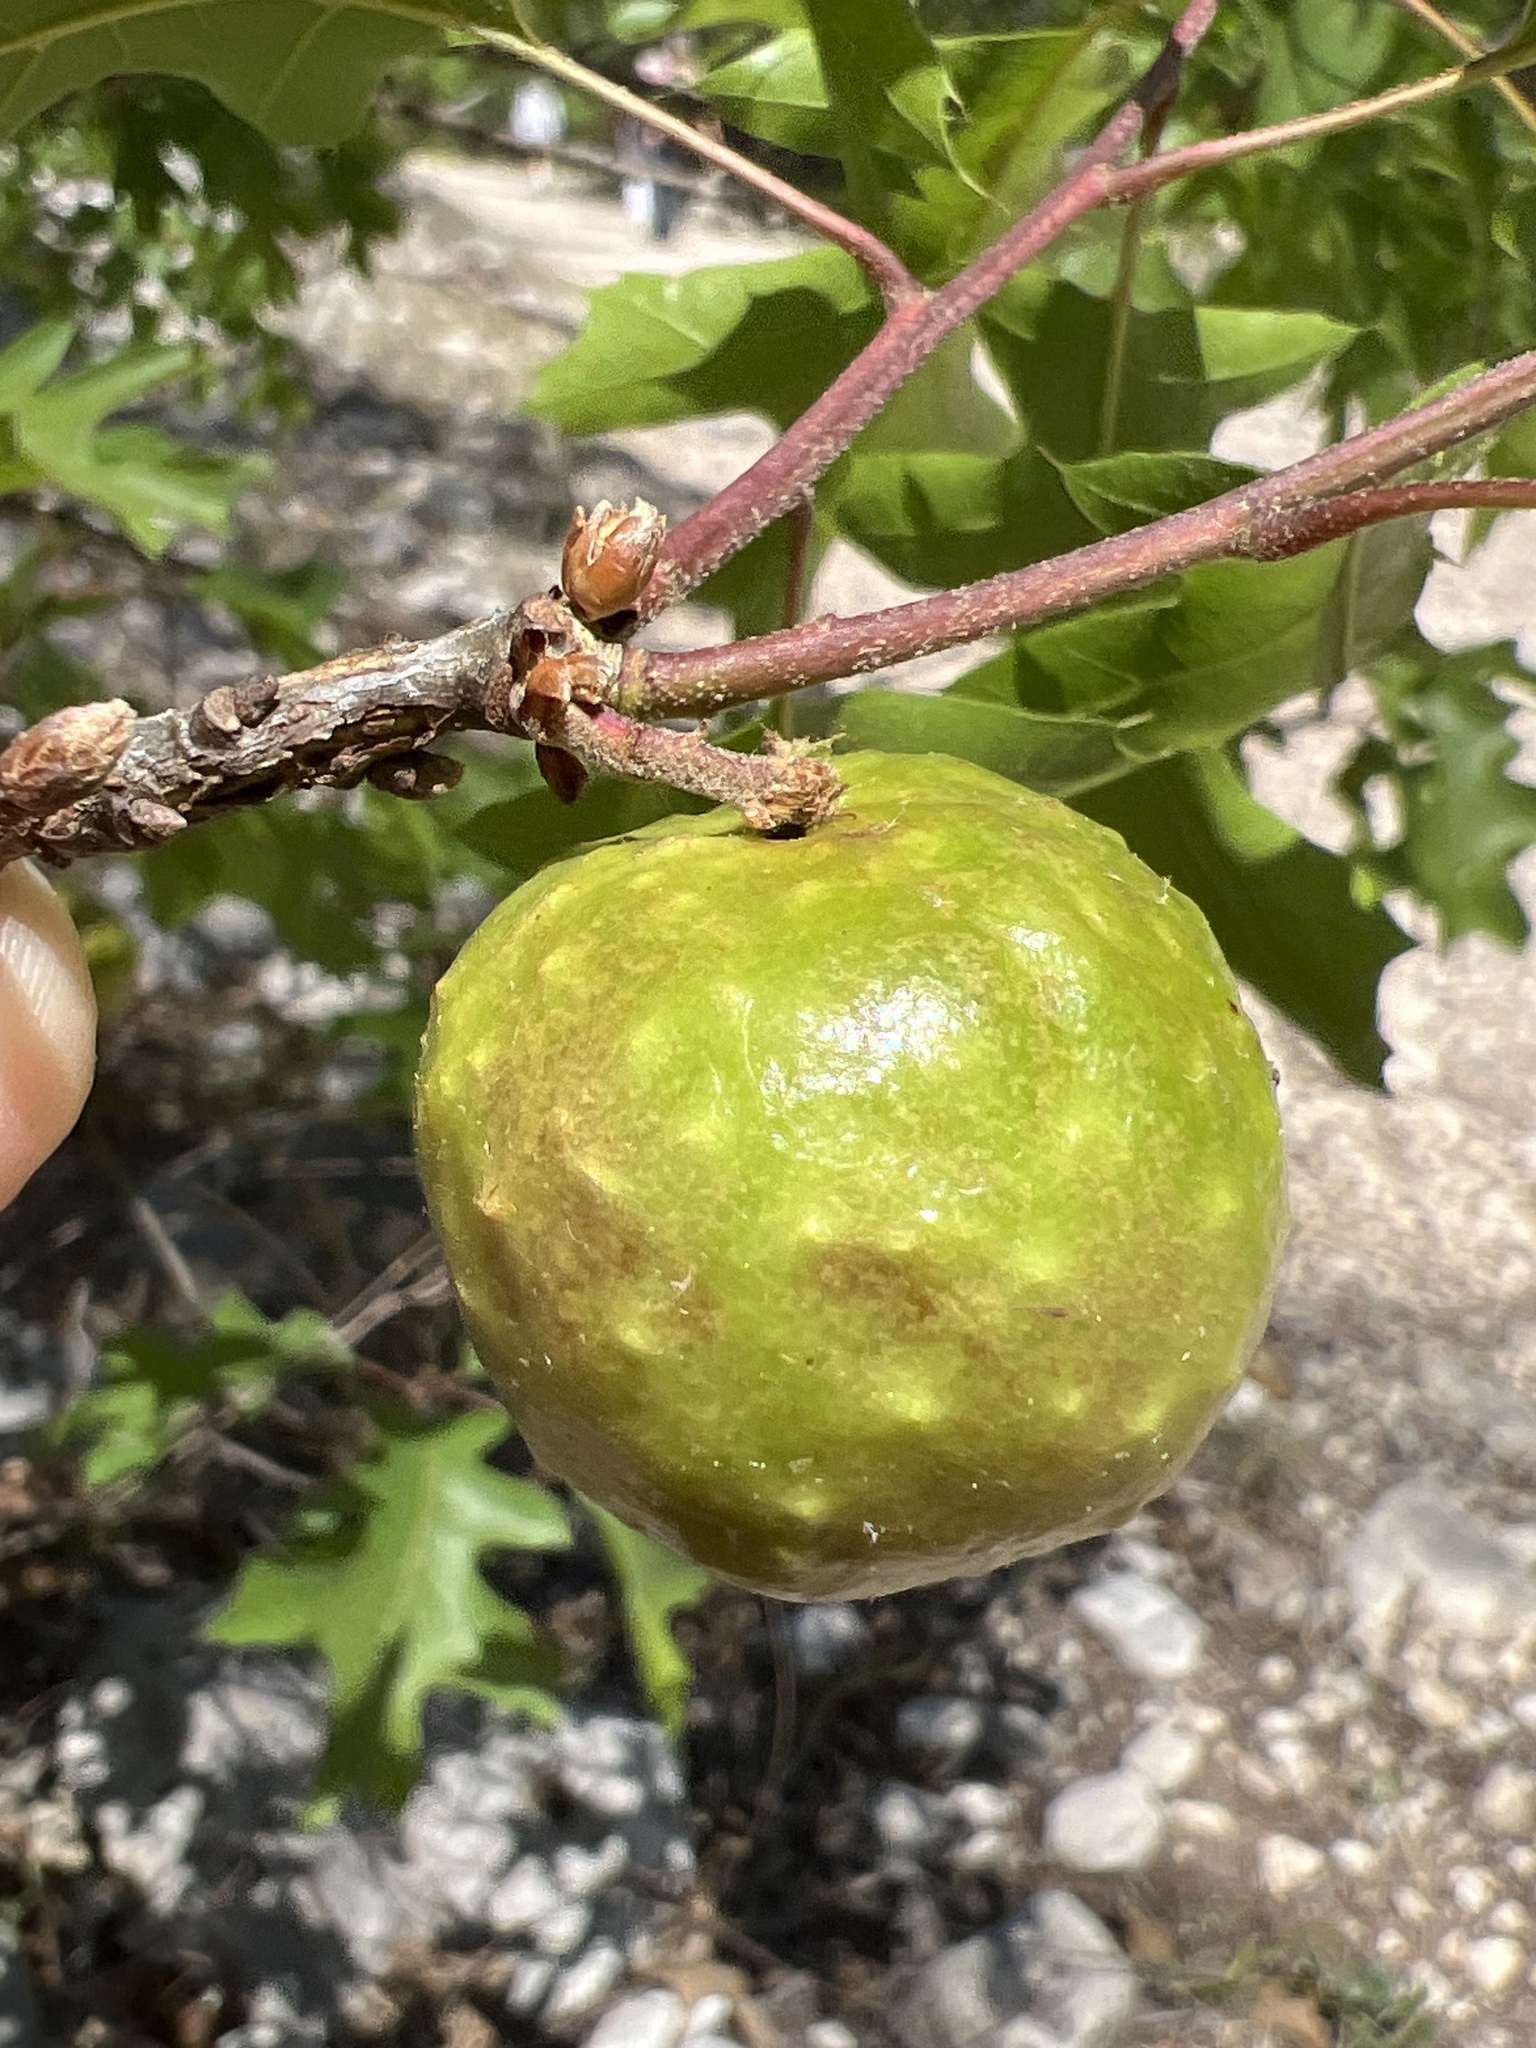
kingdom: Animalia
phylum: Arthropoda
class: Insecta
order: Hymenoptera
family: Cynipidae
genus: Amphibolips
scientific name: Amphibolips
